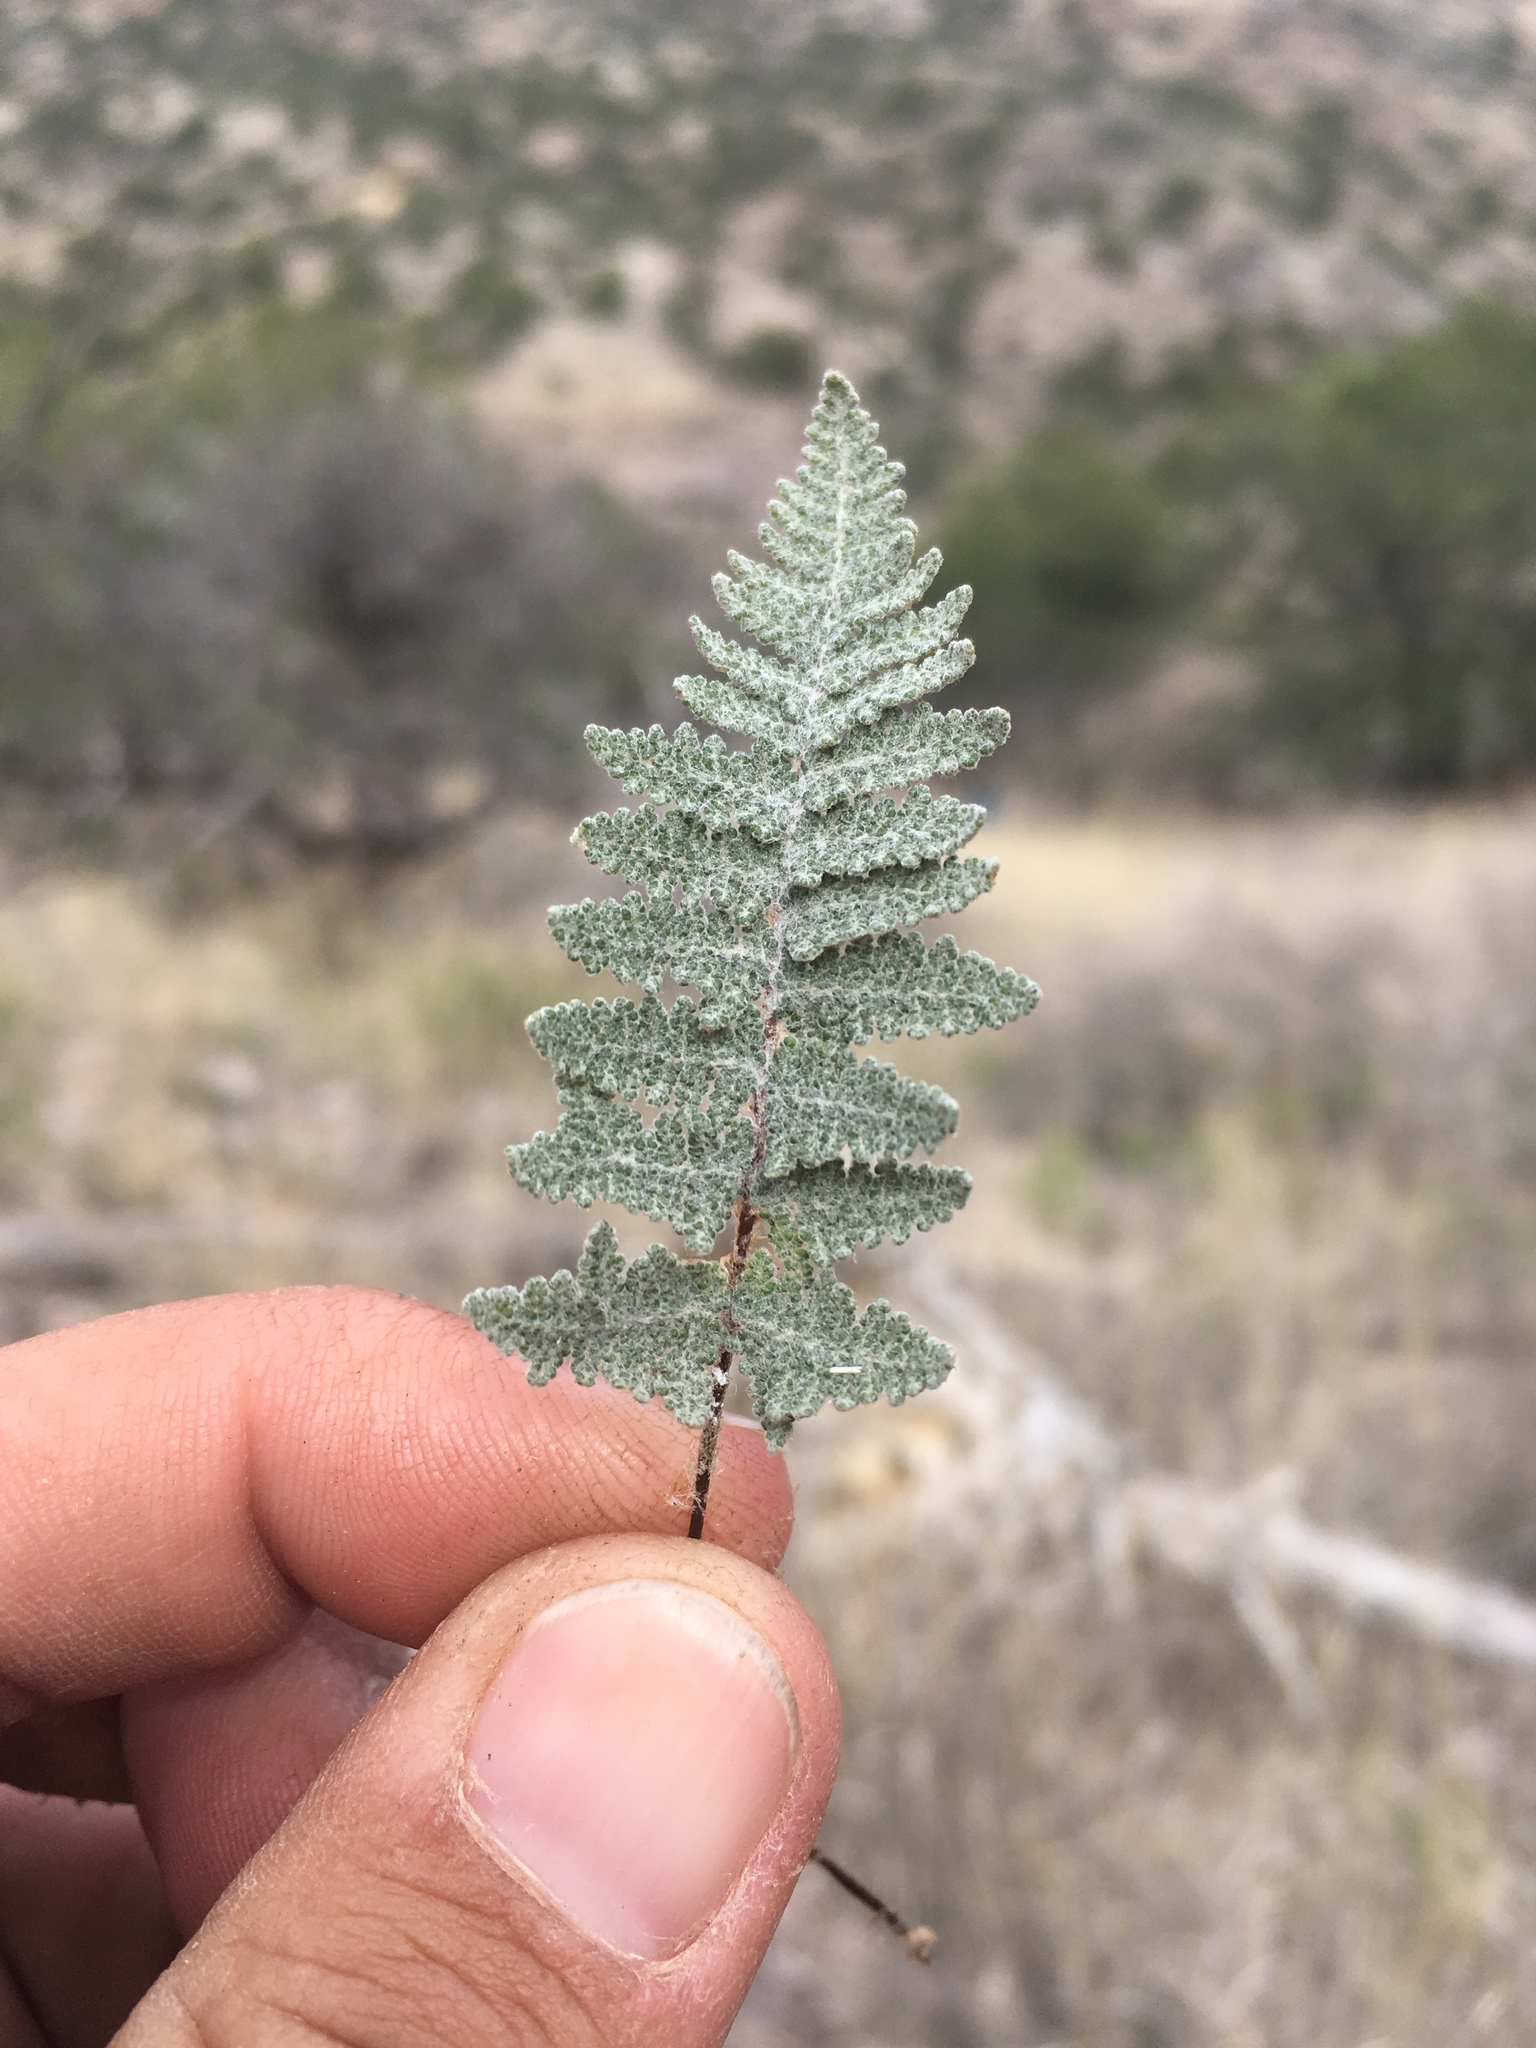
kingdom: Plantae
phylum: Tracheophyta
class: Polypodiopsida
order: Polypodiales
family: Pteridaceae
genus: Myriopteris
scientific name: Myriopteris lindheimeri
